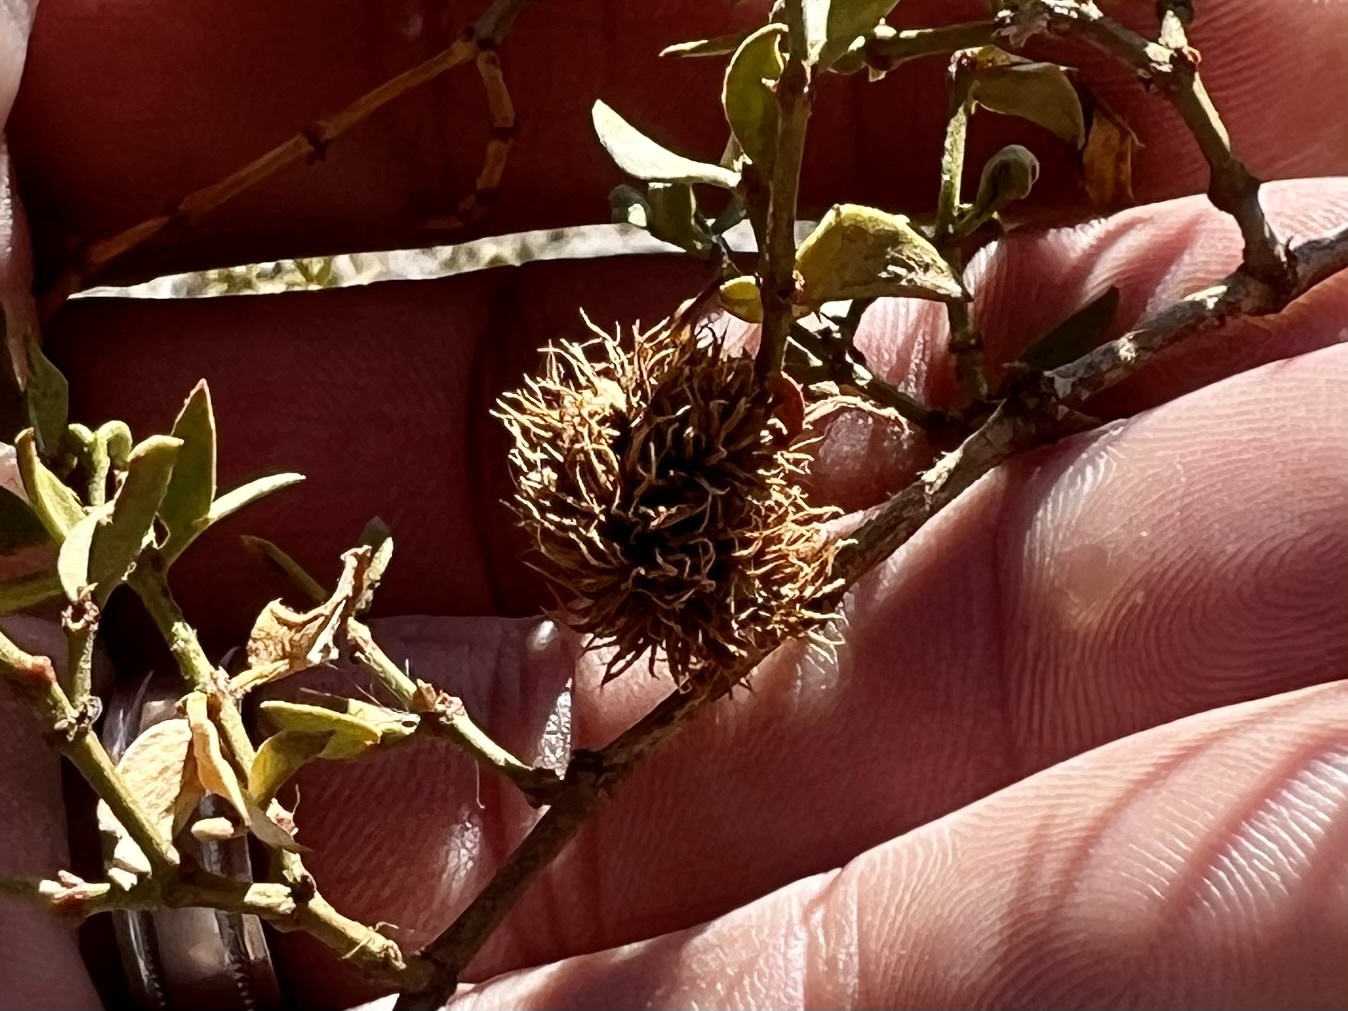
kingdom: Animalia
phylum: Arthropoda
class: Insecta
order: Diptera
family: Cecidomyiidae
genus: Asphondylia
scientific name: Asphondylia auripila
